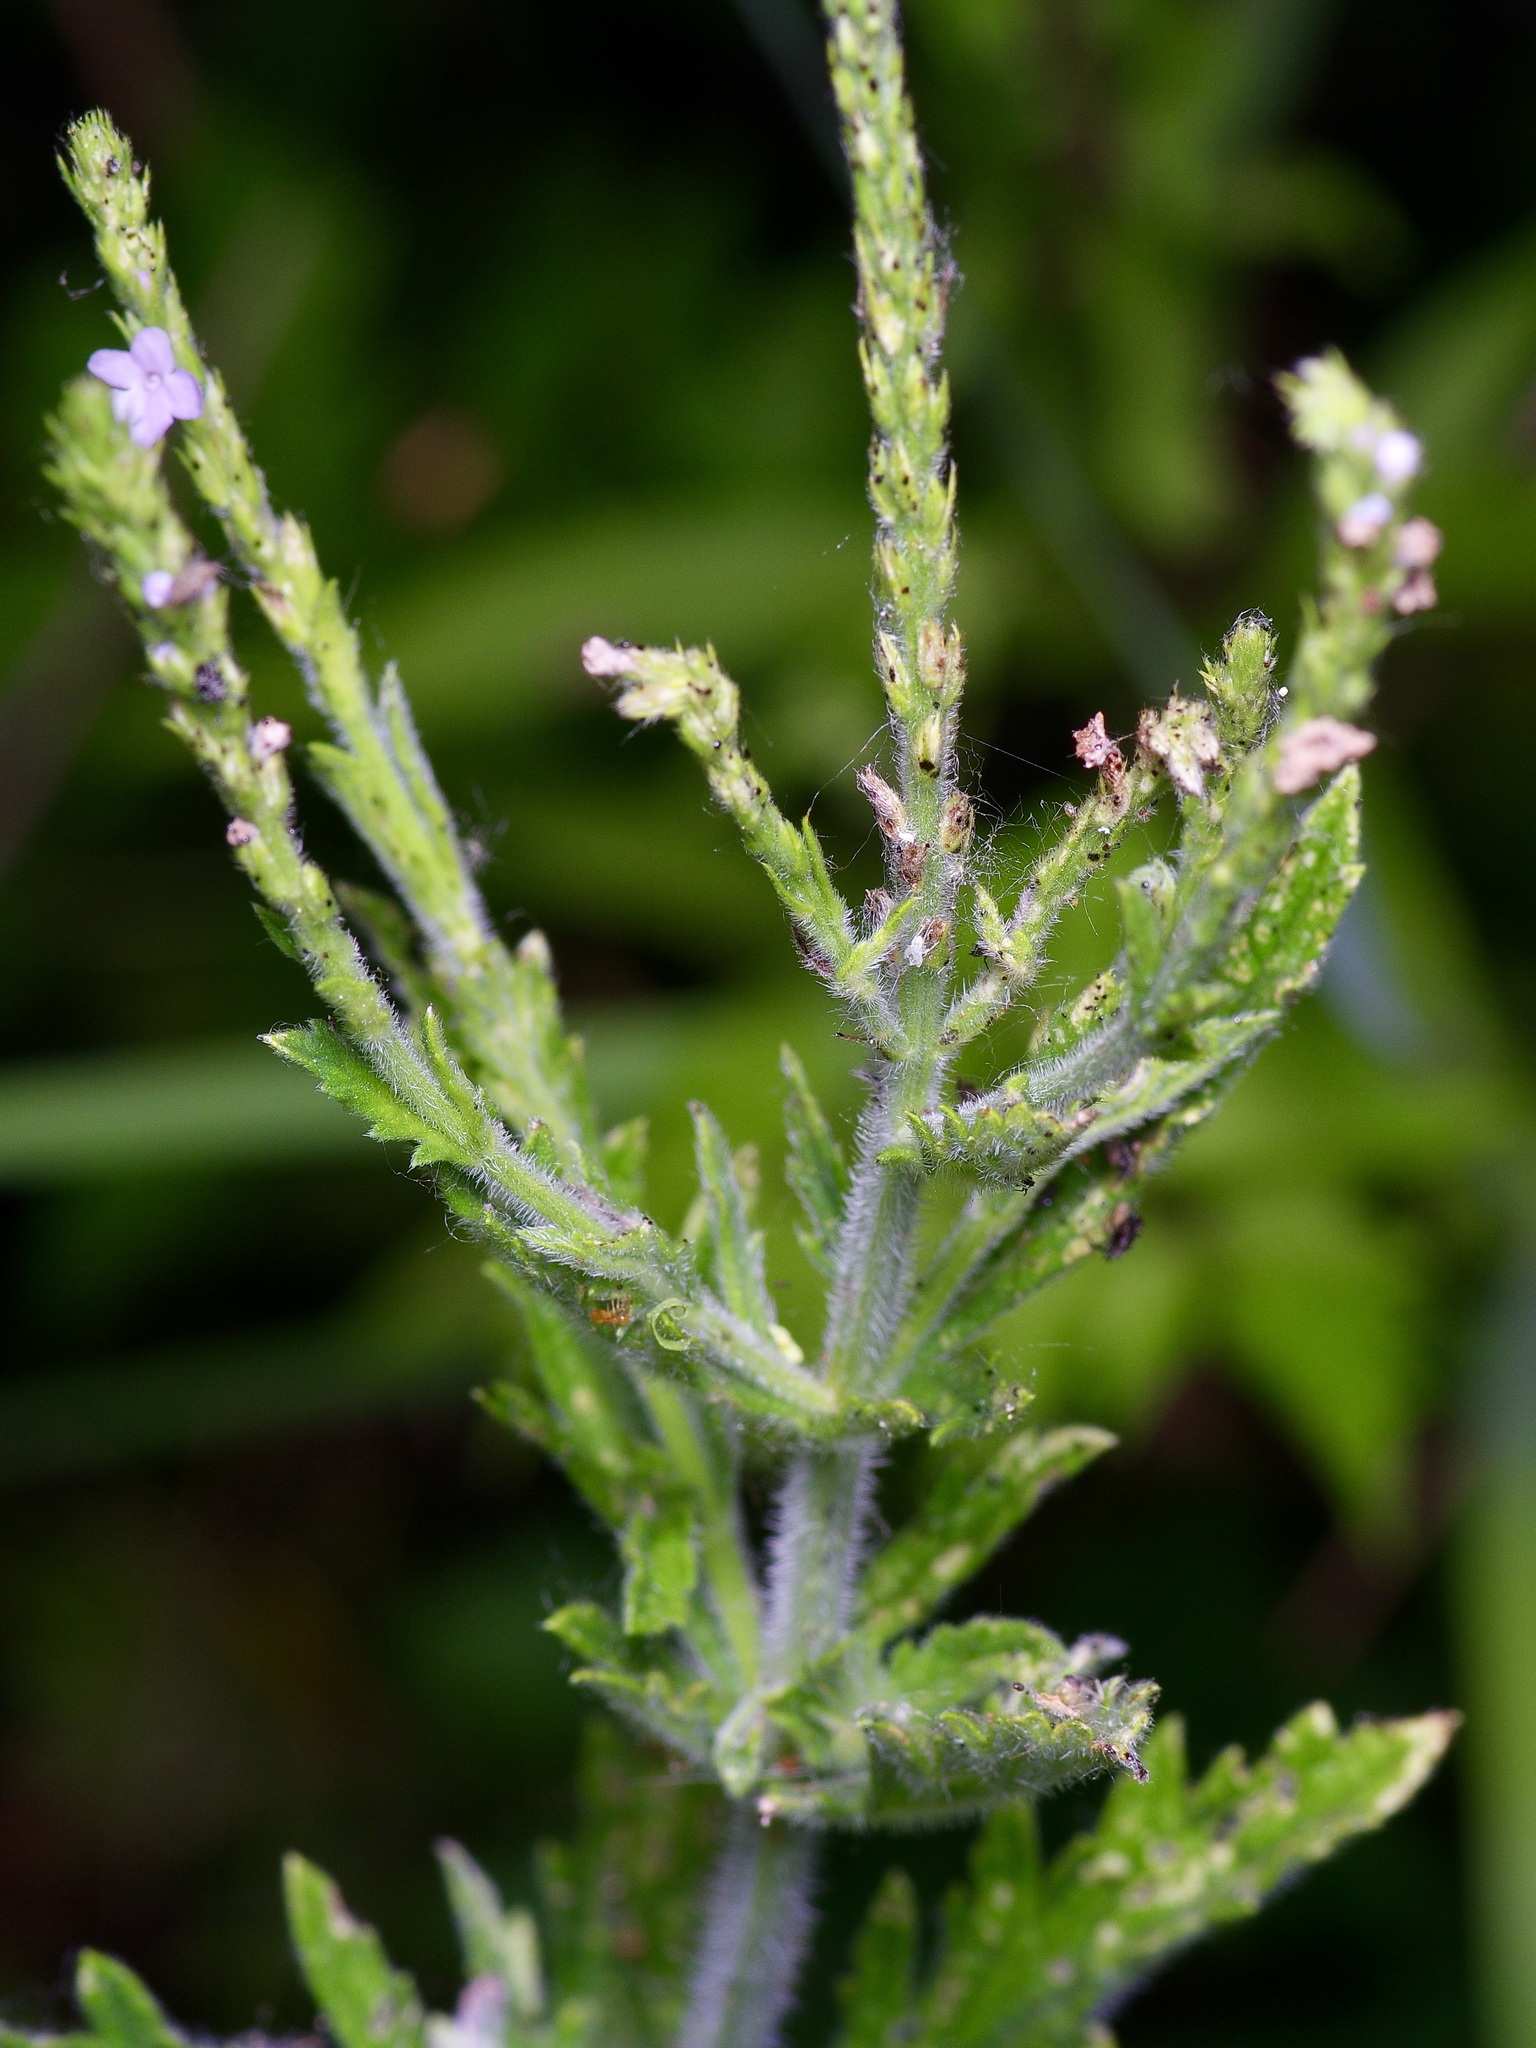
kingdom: Plantae
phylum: Tracheophyta
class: Magnoliopsida
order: Lamiales
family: Verbenaceae
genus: Verbena
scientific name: Verbena xutha
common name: Gulf vervain
